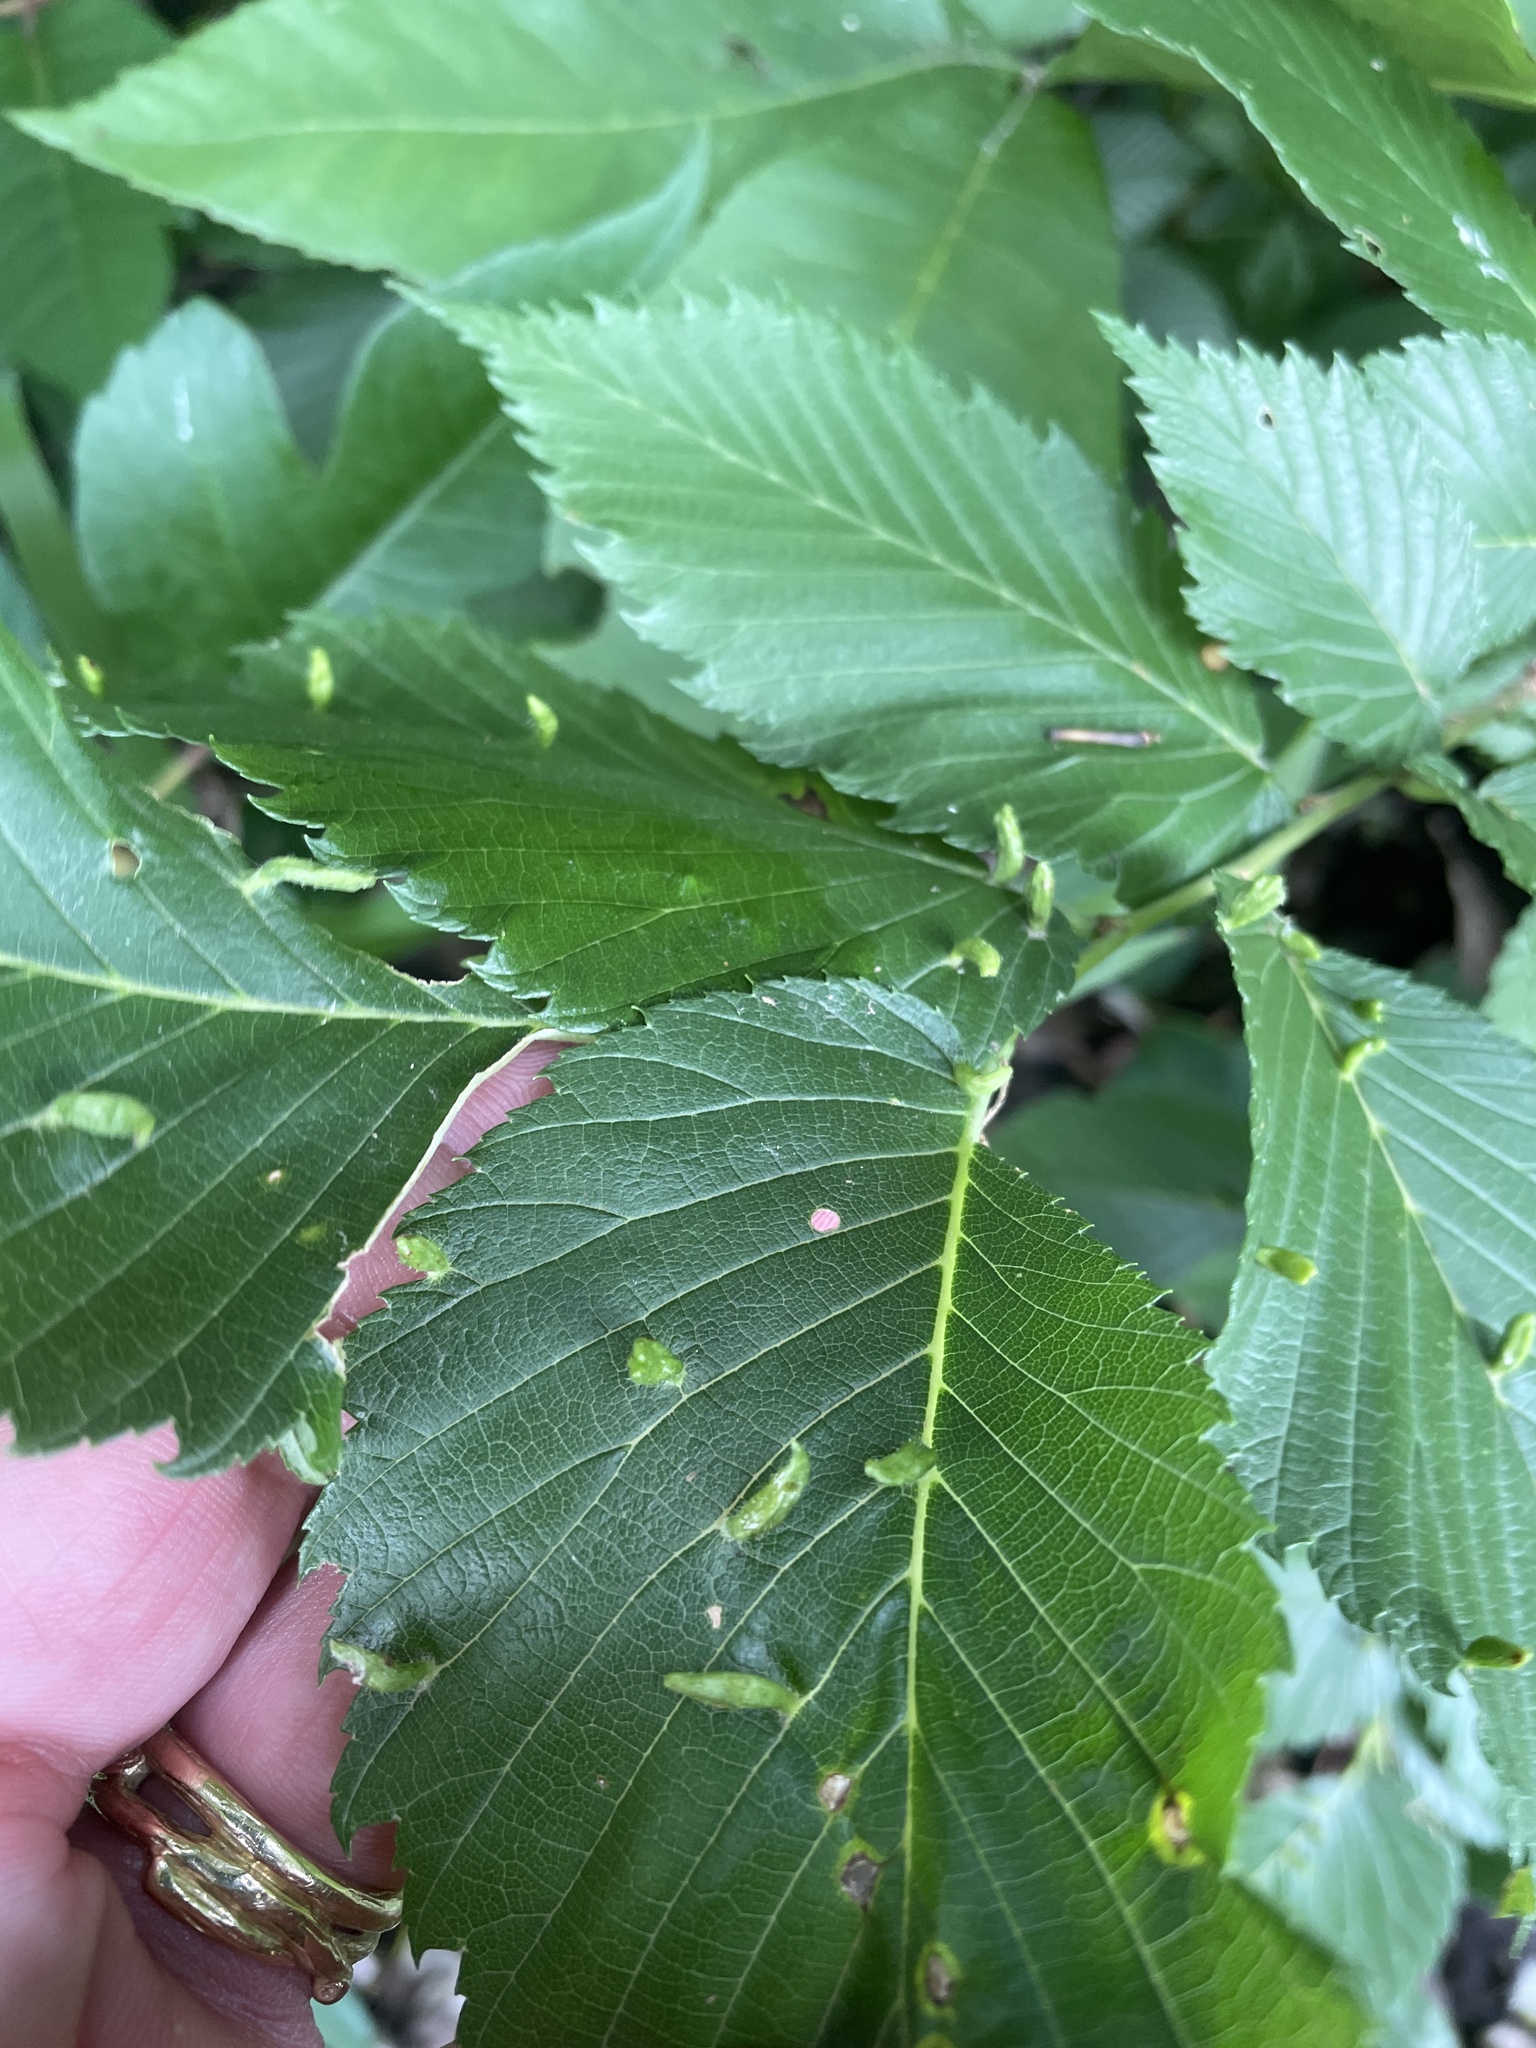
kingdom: Animalia
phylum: Arthropoda
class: Arachnida
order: Trombidiformes
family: Eriophyidae
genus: Aceria
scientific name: Aceria
